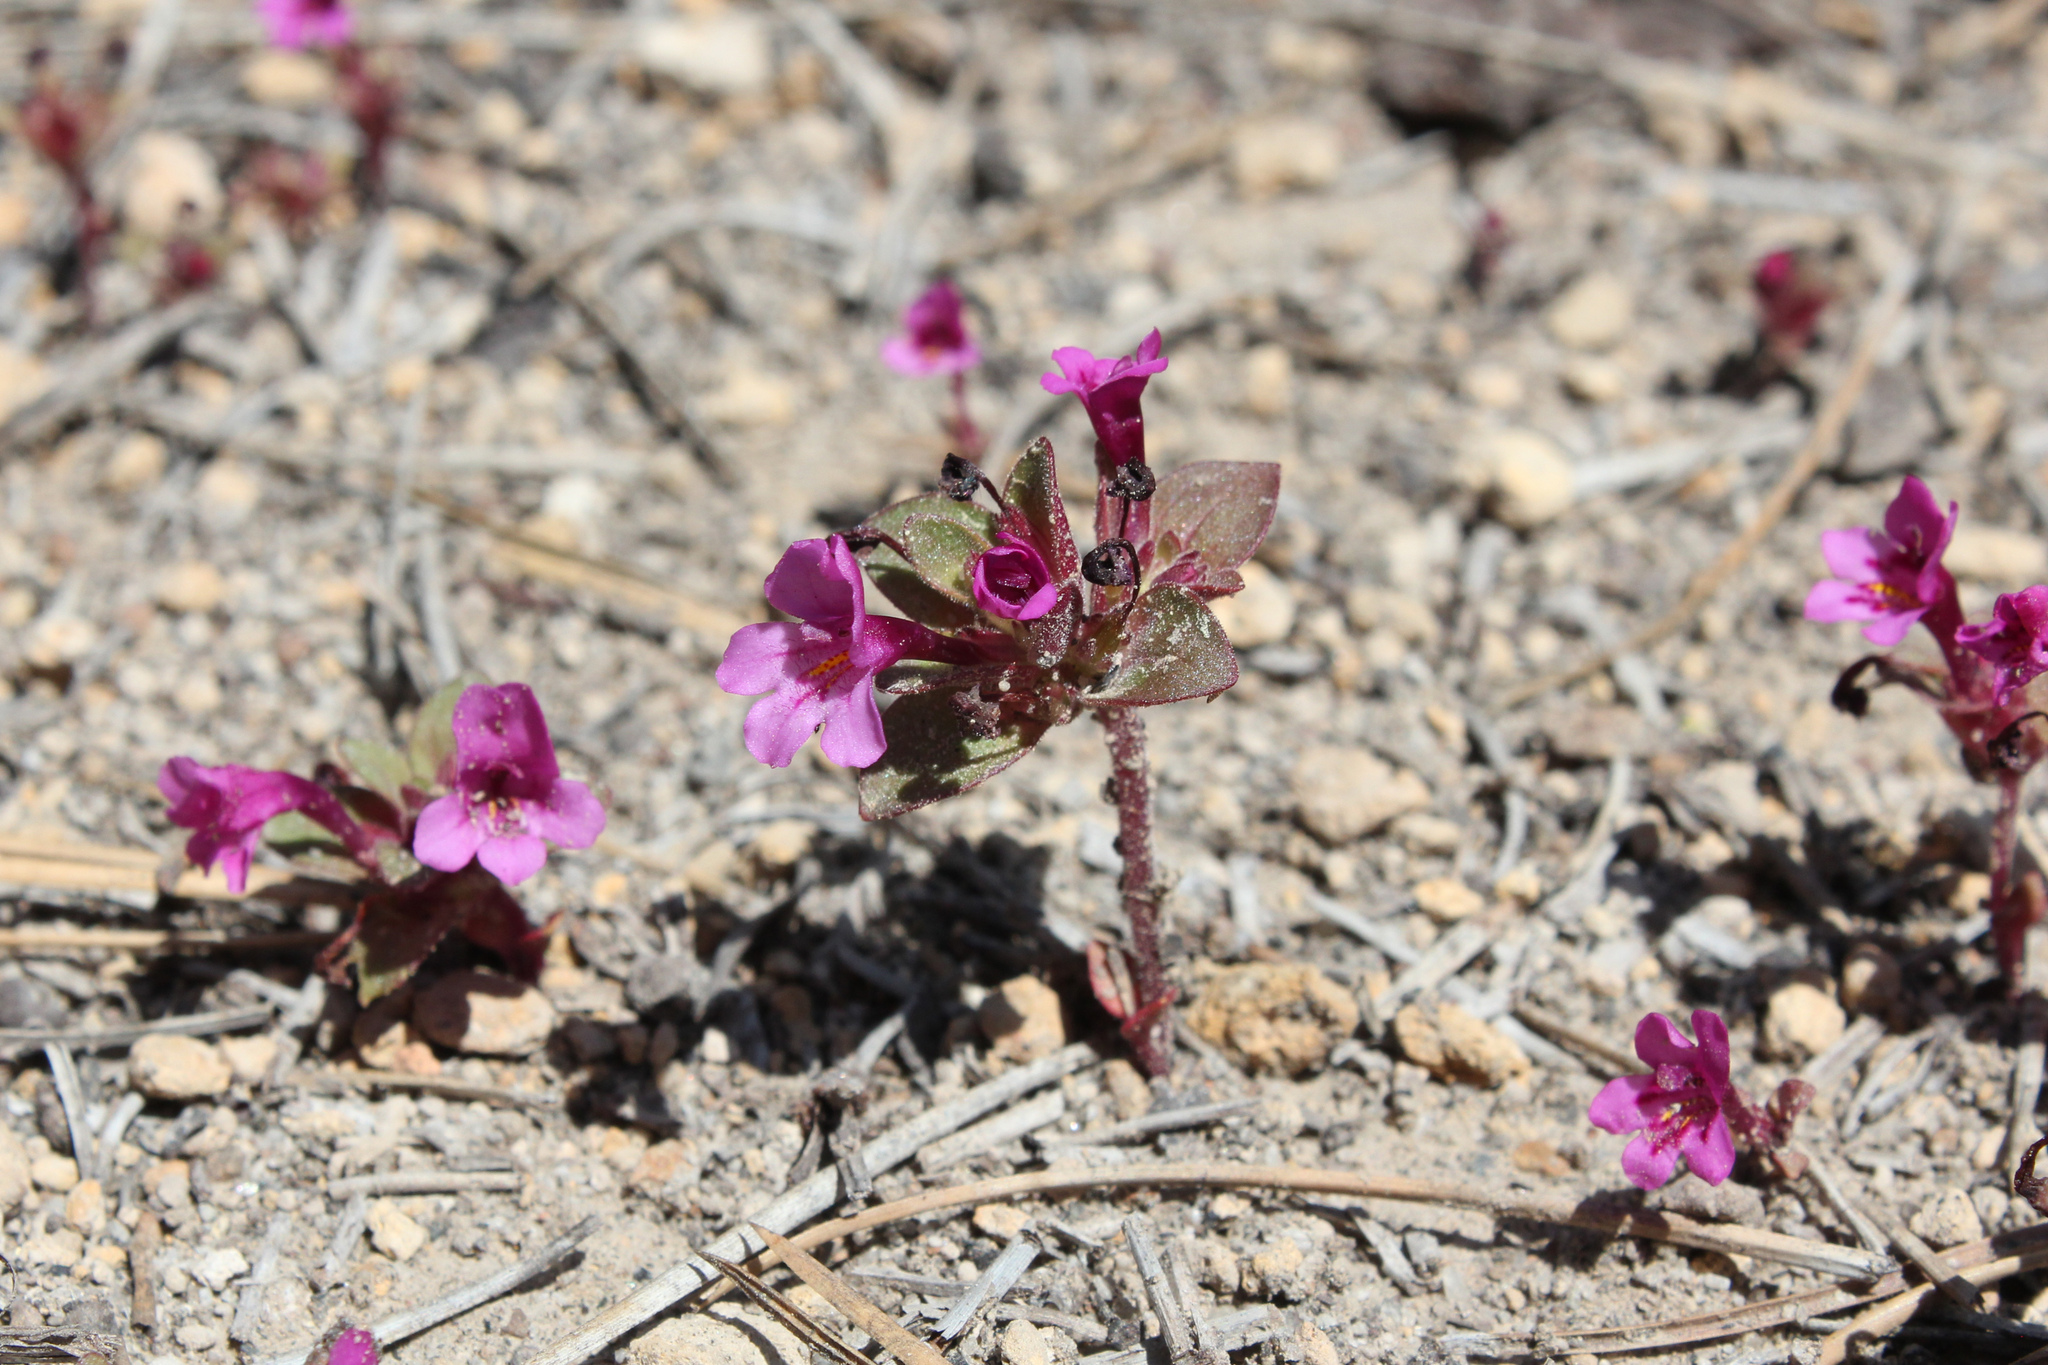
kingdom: Plantae
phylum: Tracheophyta
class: Magnoliopsida
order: Lamiales
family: Phrymaceae
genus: Diplacus
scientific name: Diplacus cascadensis
